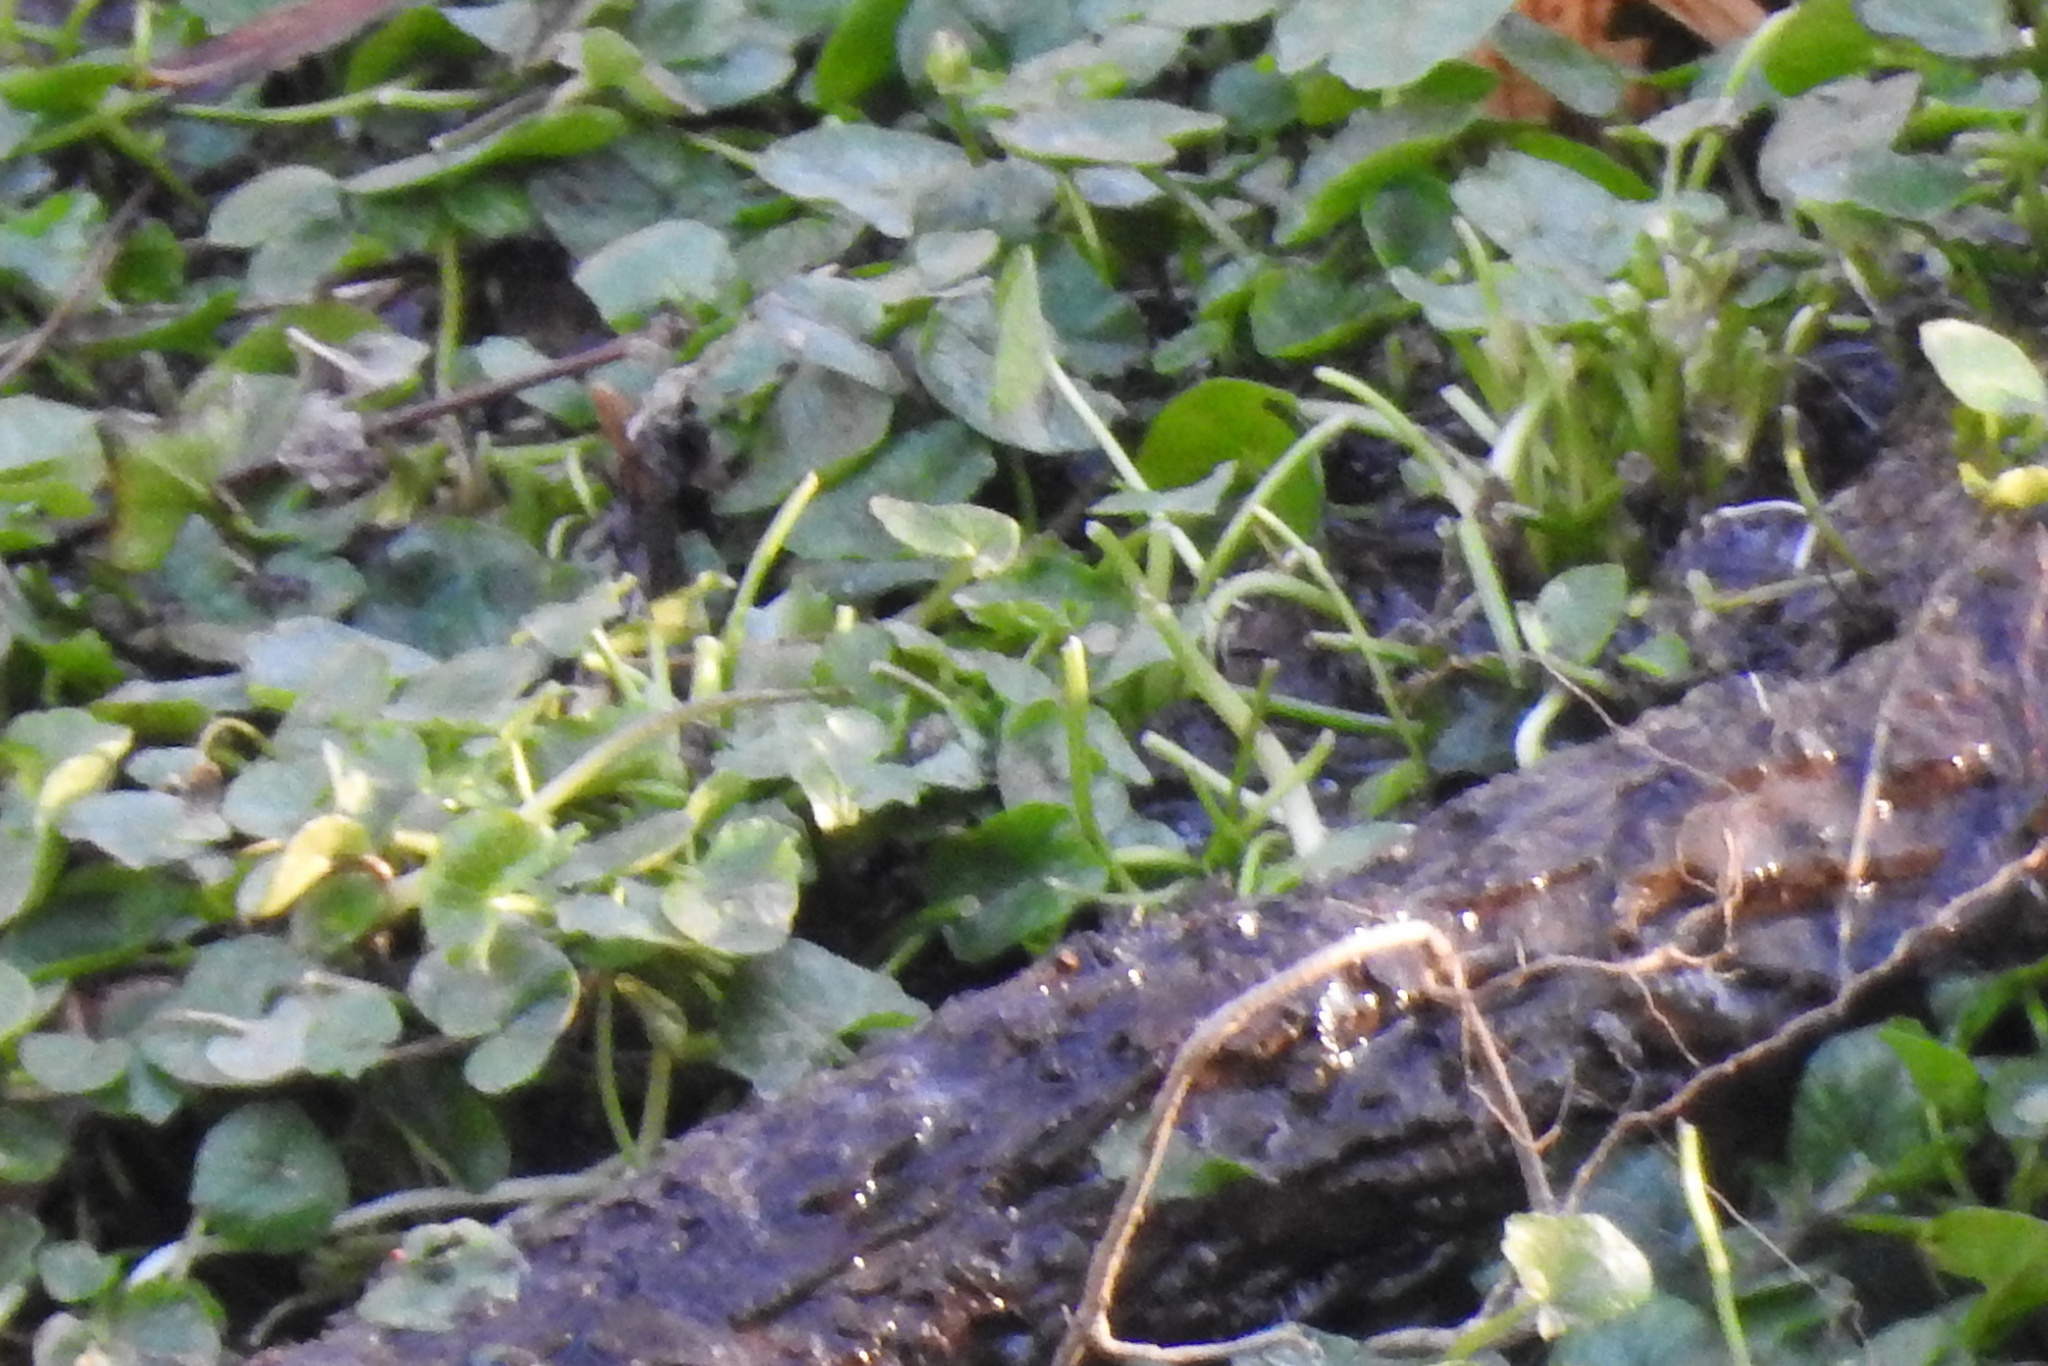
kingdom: Plantae
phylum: Tracheophyta
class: Magnoliopsida
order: Ranunculales
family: Ranunculaceae
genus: Ficaria
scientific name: Ficaria verna
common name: Lesser celandine
